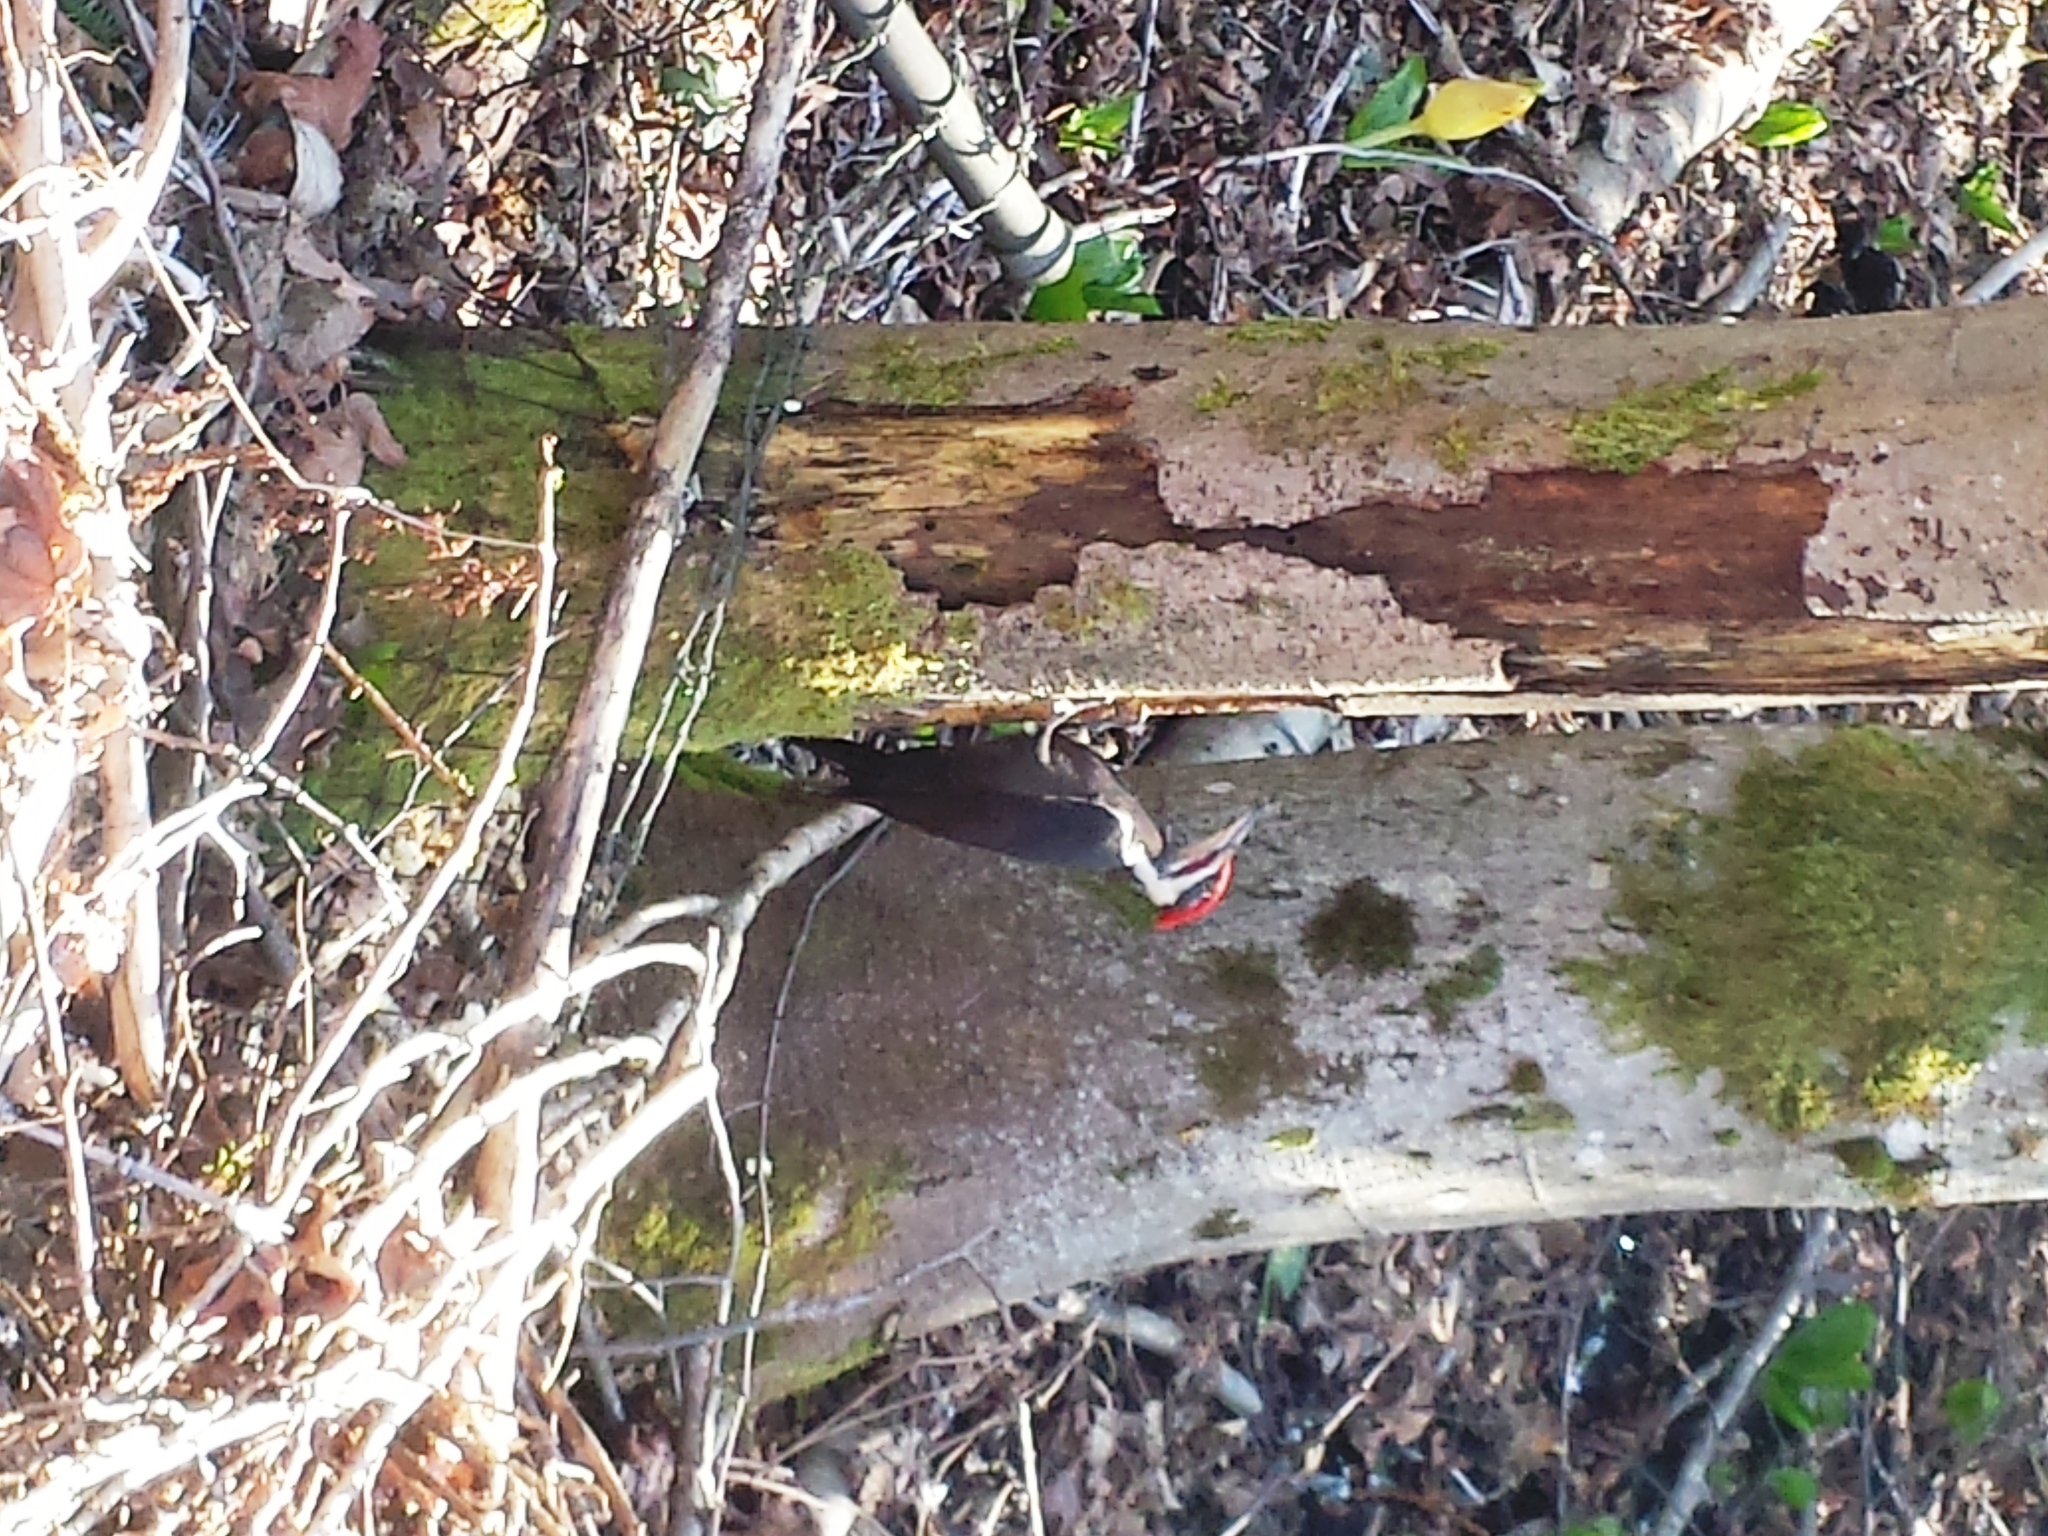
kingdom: Animalia
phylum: Chordata
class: Aves
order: Piciformes
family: Picidae
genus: Dryocopus
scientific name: Dryocopus pileatus
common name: Pileated woodpecker
